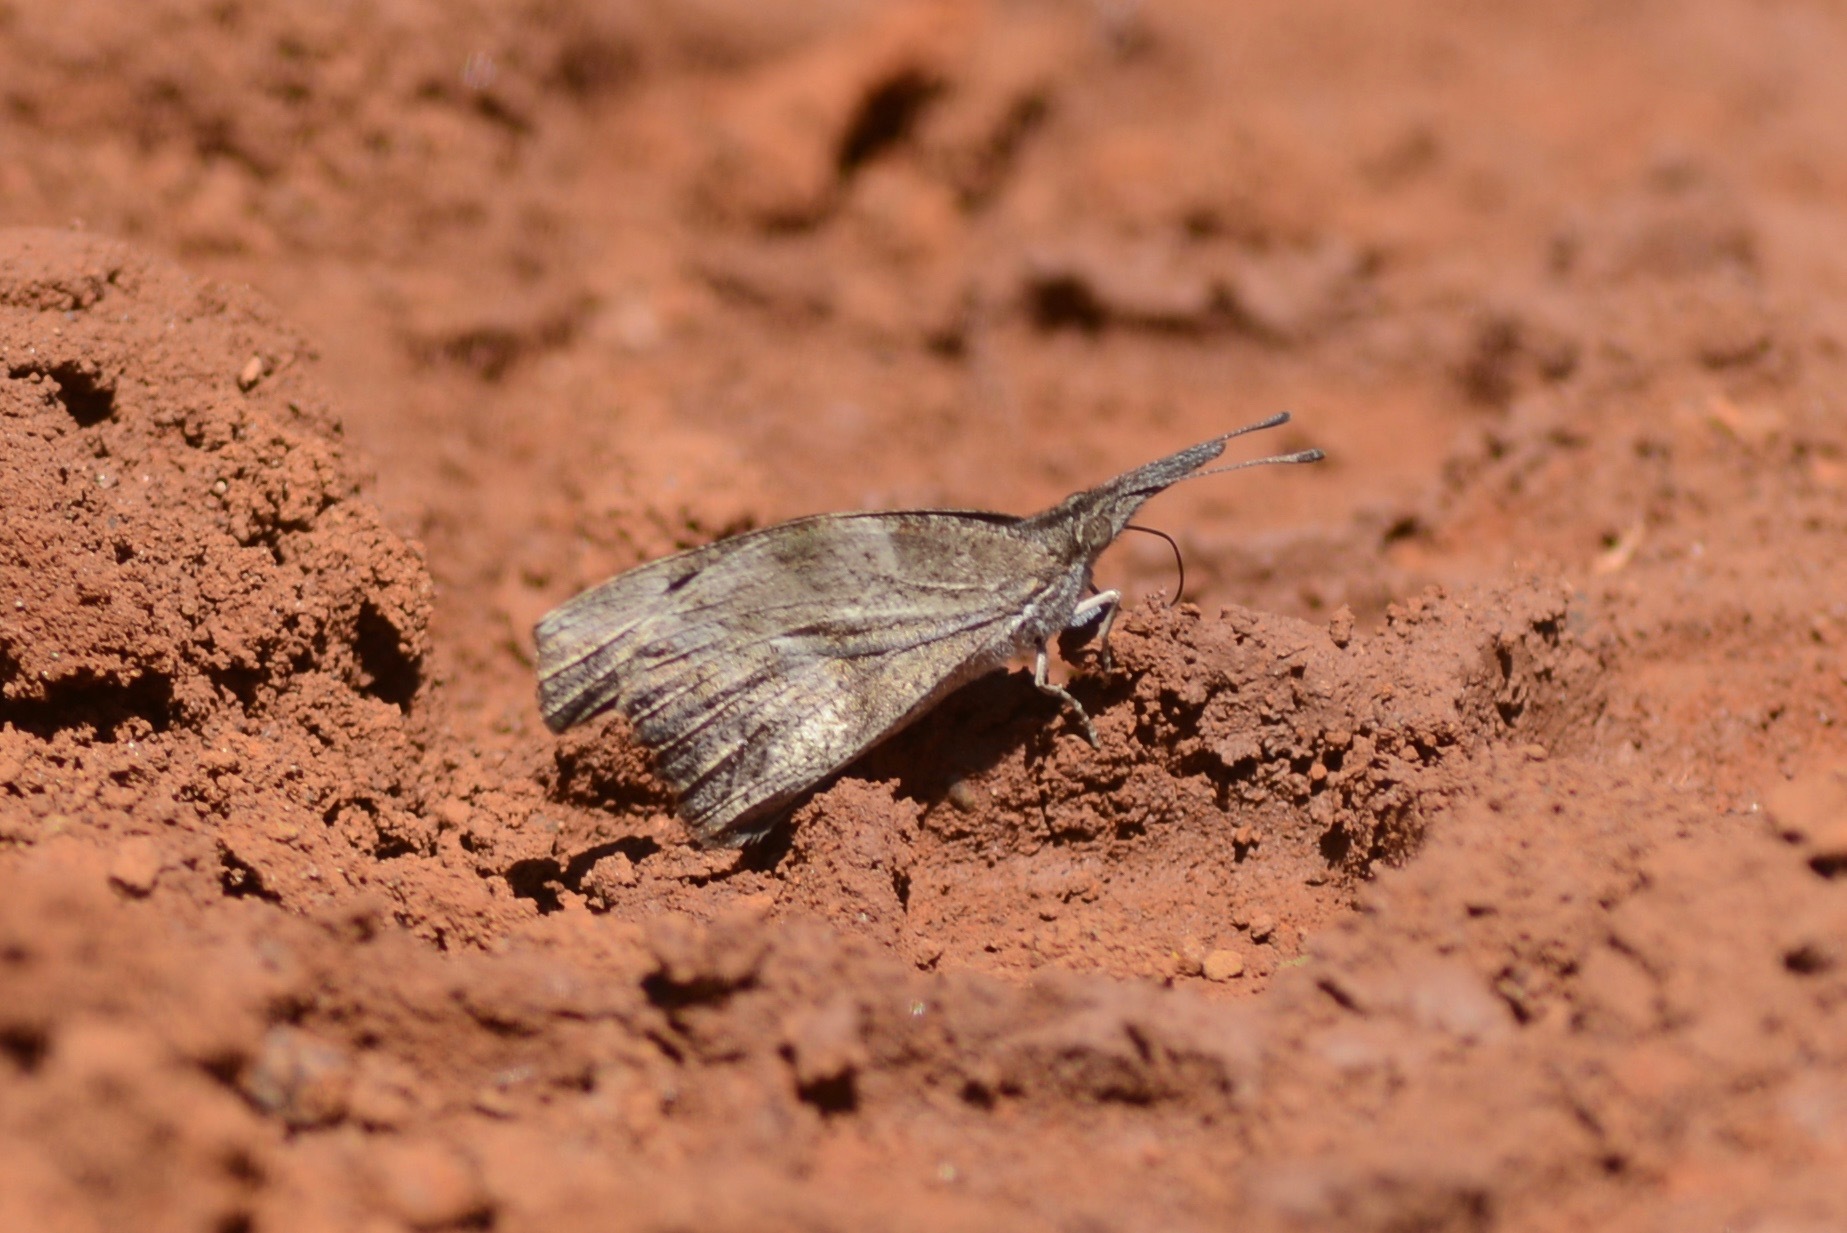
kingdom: Animalia
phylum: Arthropoda
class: Insecta
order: Lepidoptera
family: Nymphalidae
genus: Libytheana
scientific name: Libytheana carinenta
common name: American snout
